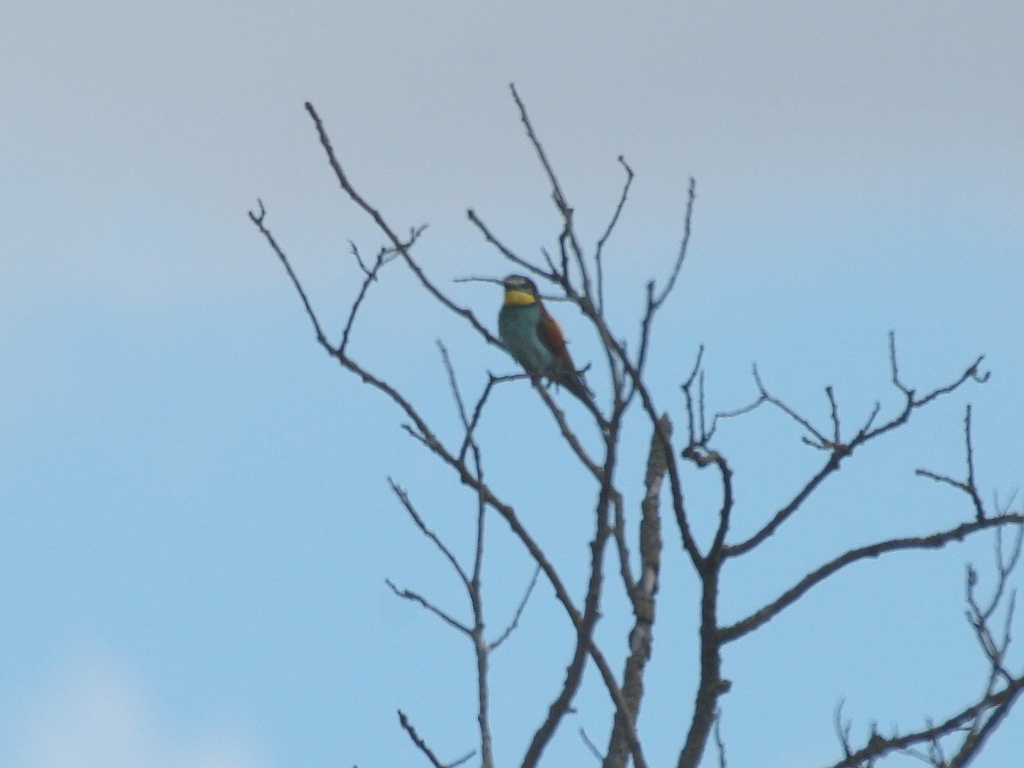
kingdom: Animalia
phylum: Chordata
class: Aves
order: Coraciiformes
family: Meropidae
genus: Merops
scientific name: Merops apiaster
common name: European bee-eater
